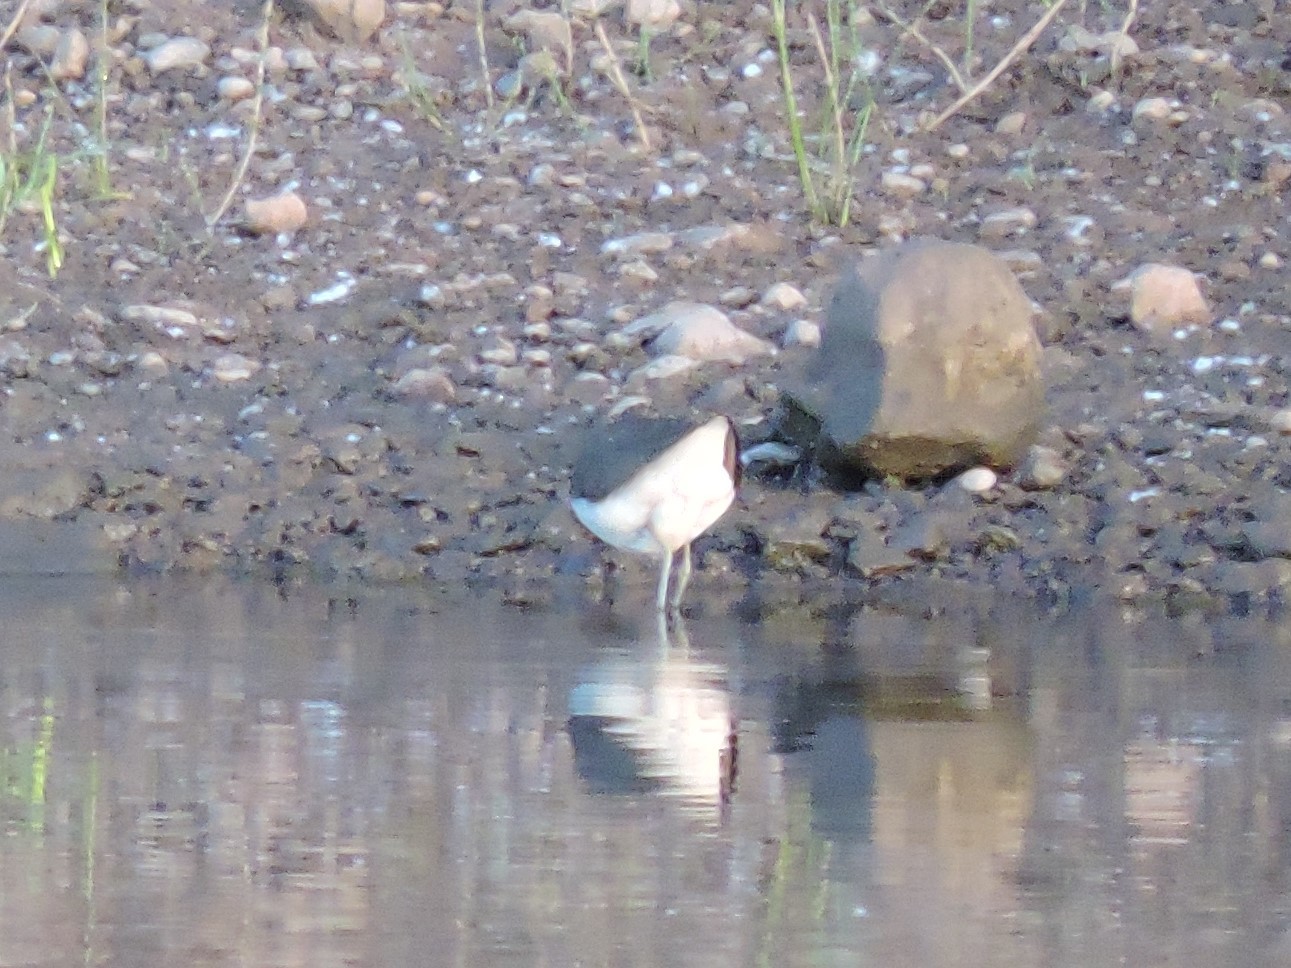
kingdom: Animalia
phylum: Chordata
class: Aves
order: Charadriiformes
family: Scolopacidae
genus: Tringa
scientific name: Tringa ochropus
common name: Green sandpiper
